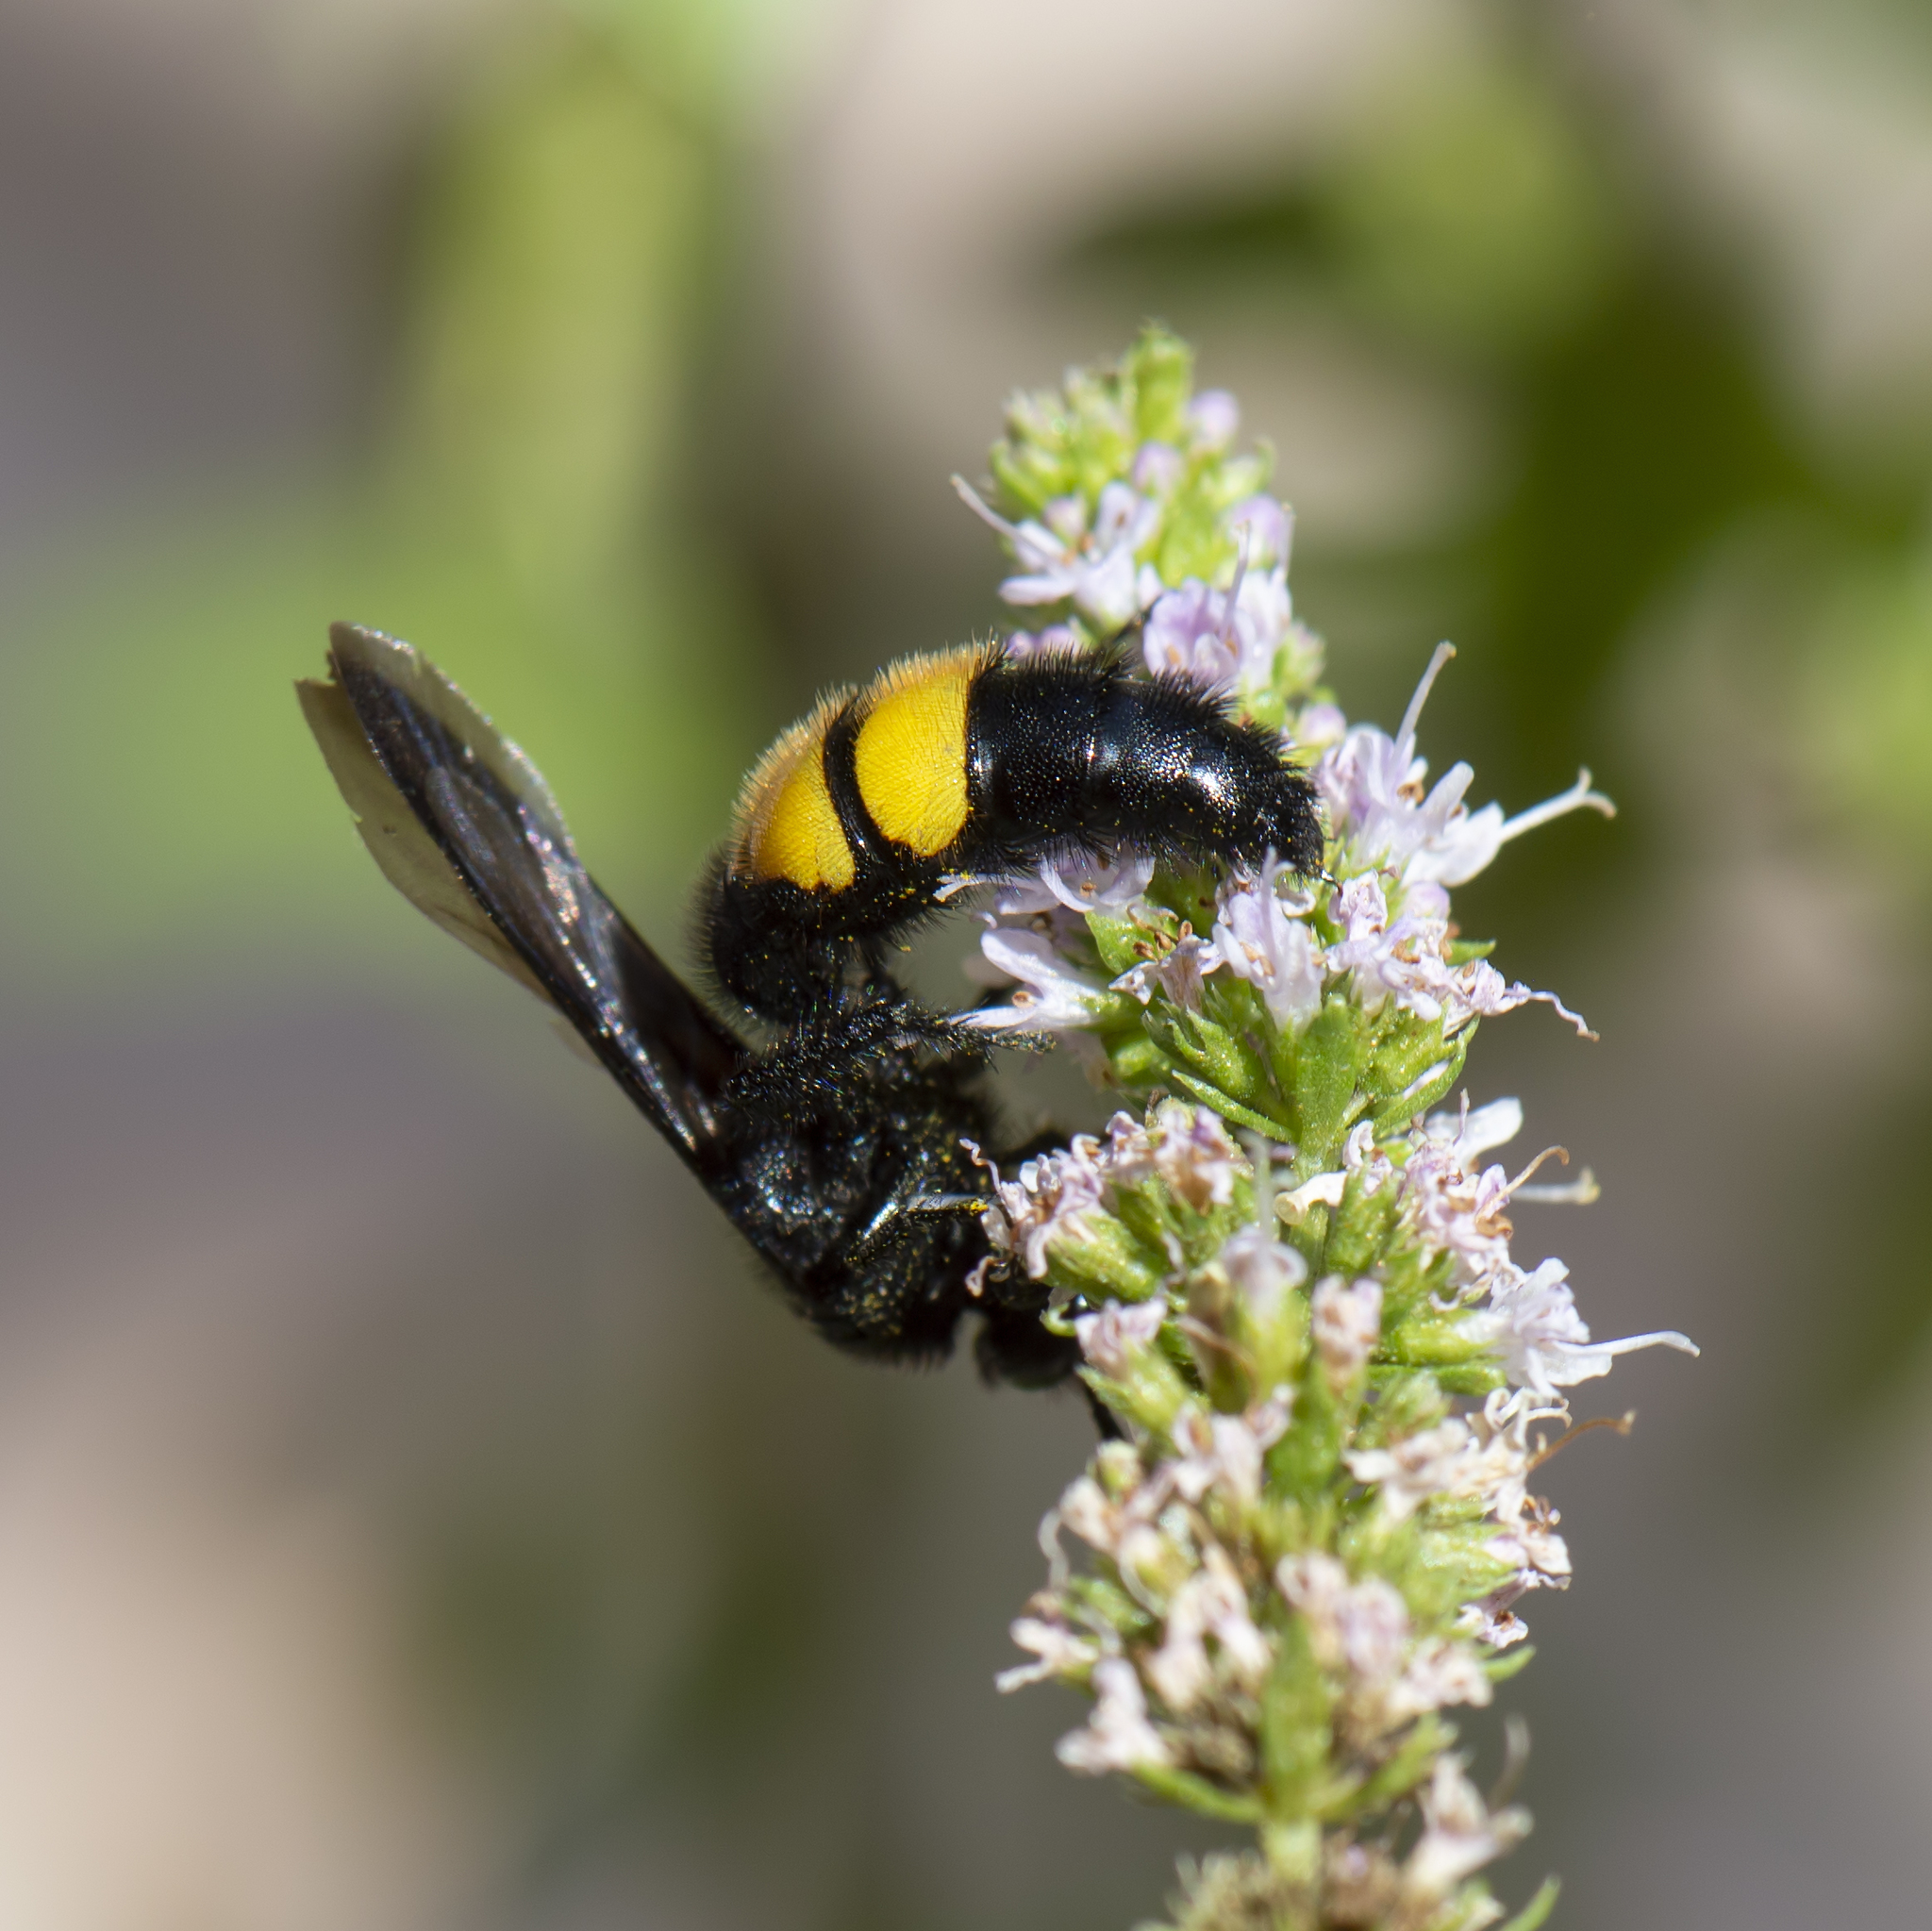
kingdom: Animalia
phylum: Arthropoda
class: Insecta
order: Hymenoptera
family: Scoliidae
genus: Scolia
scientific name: Scolia hirta
